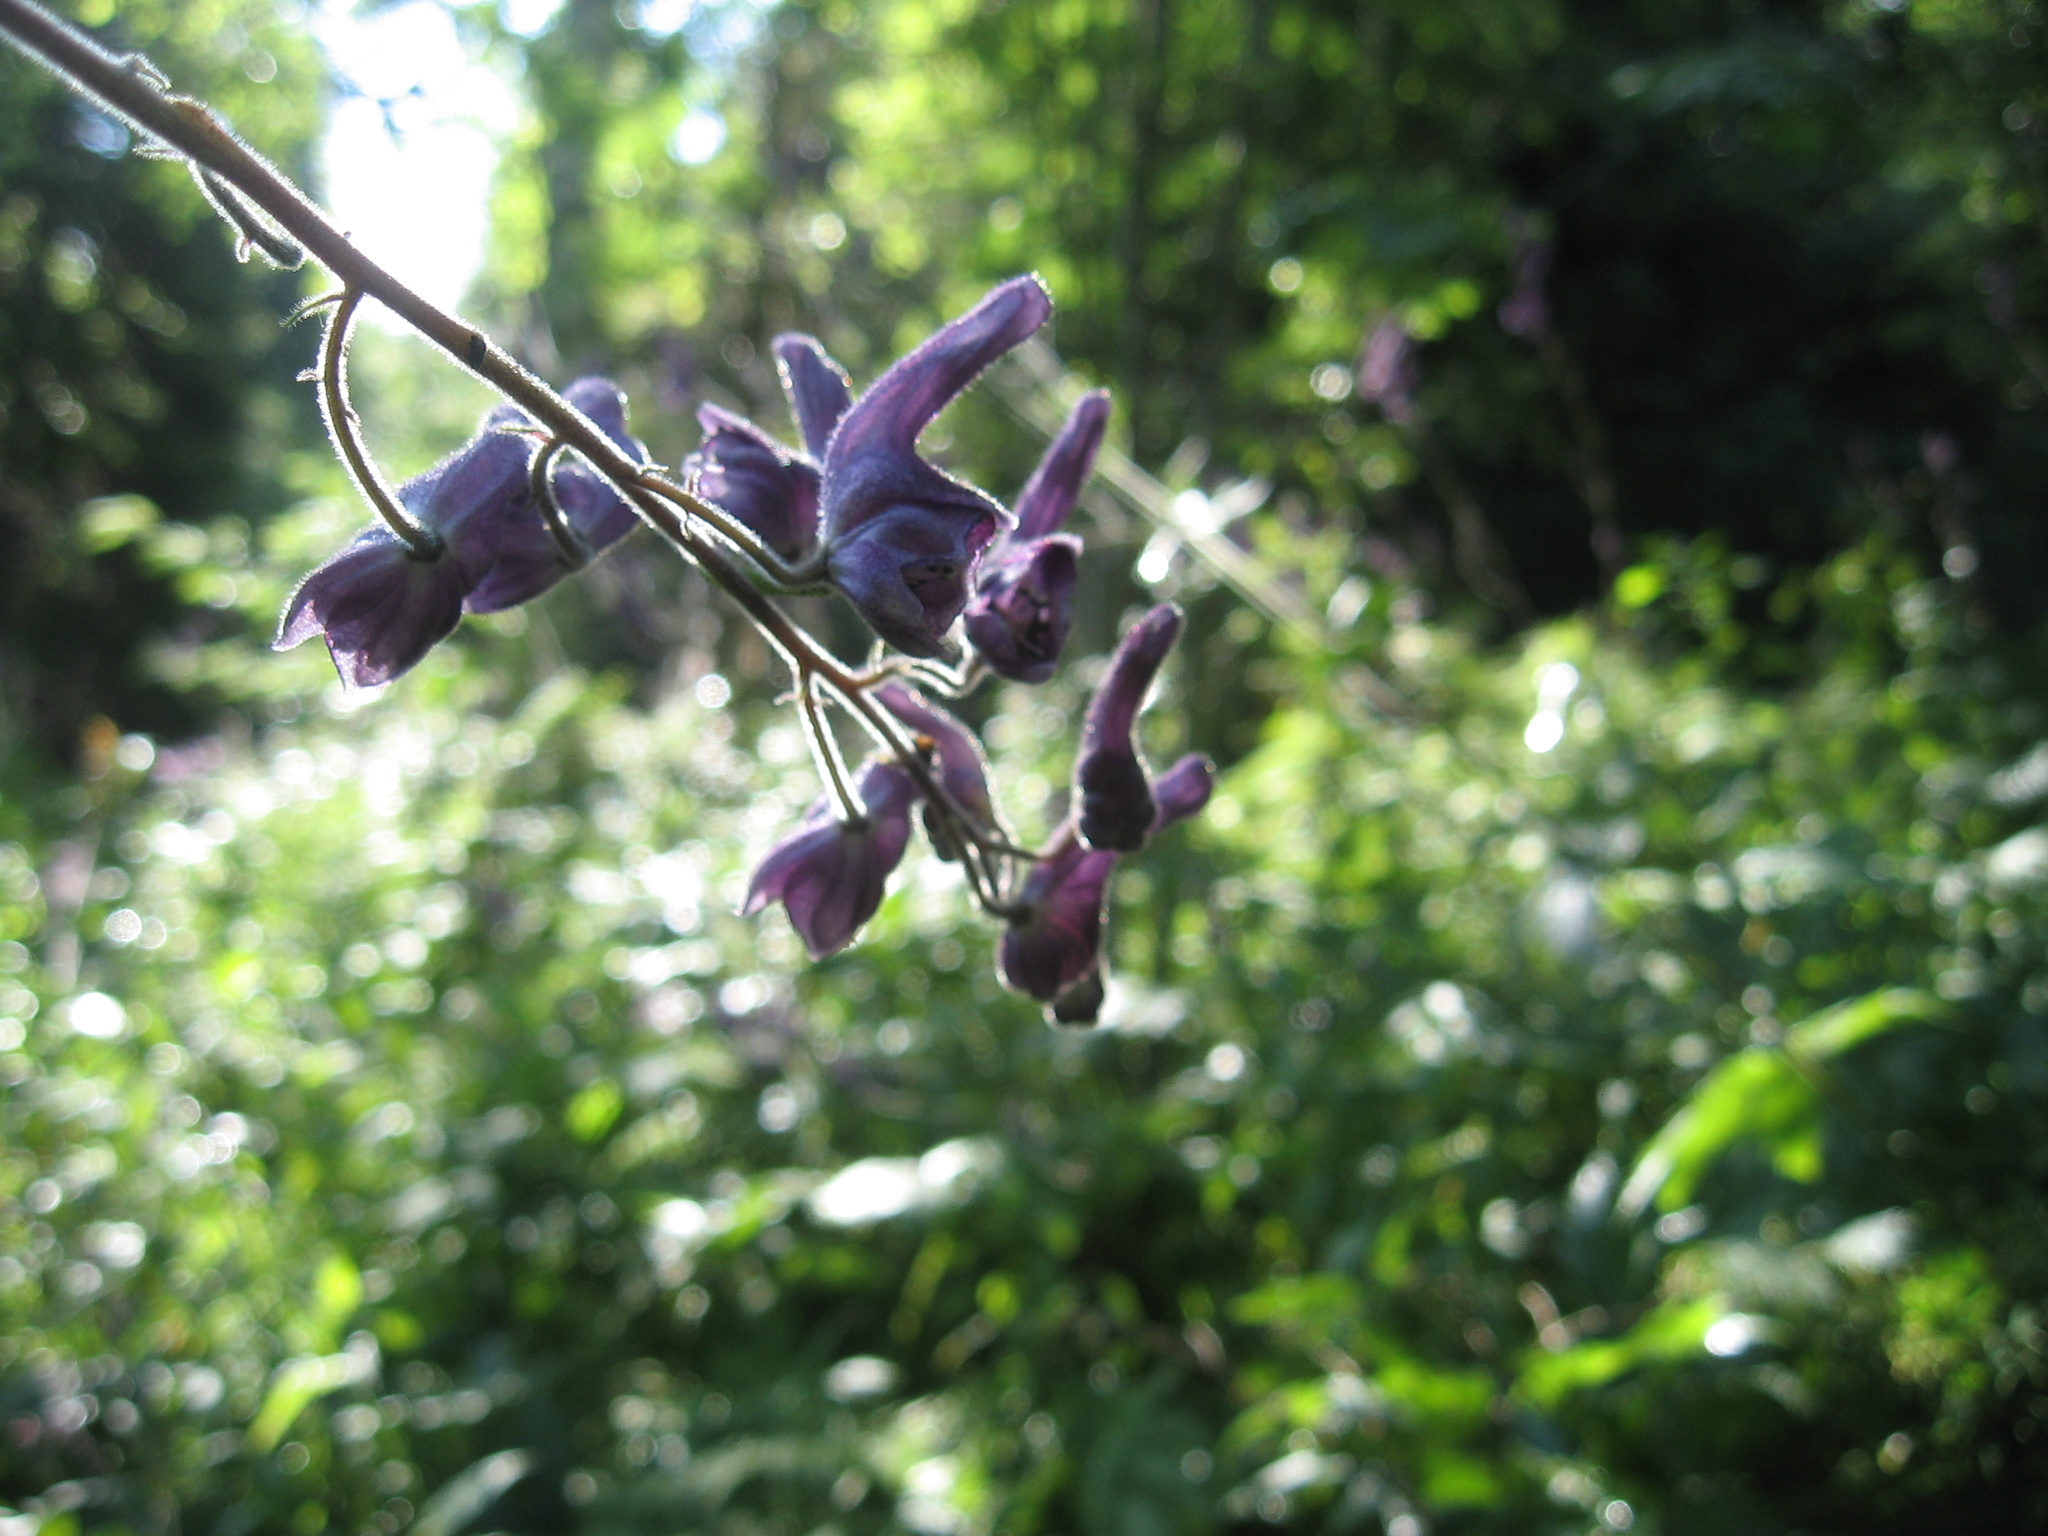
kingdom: Plantae
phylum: Tracheophyta
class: Magnoliopsida
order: Ranunculales
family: Ranunculaceae
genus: Aconitum
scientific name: Aconitum septentrionale
